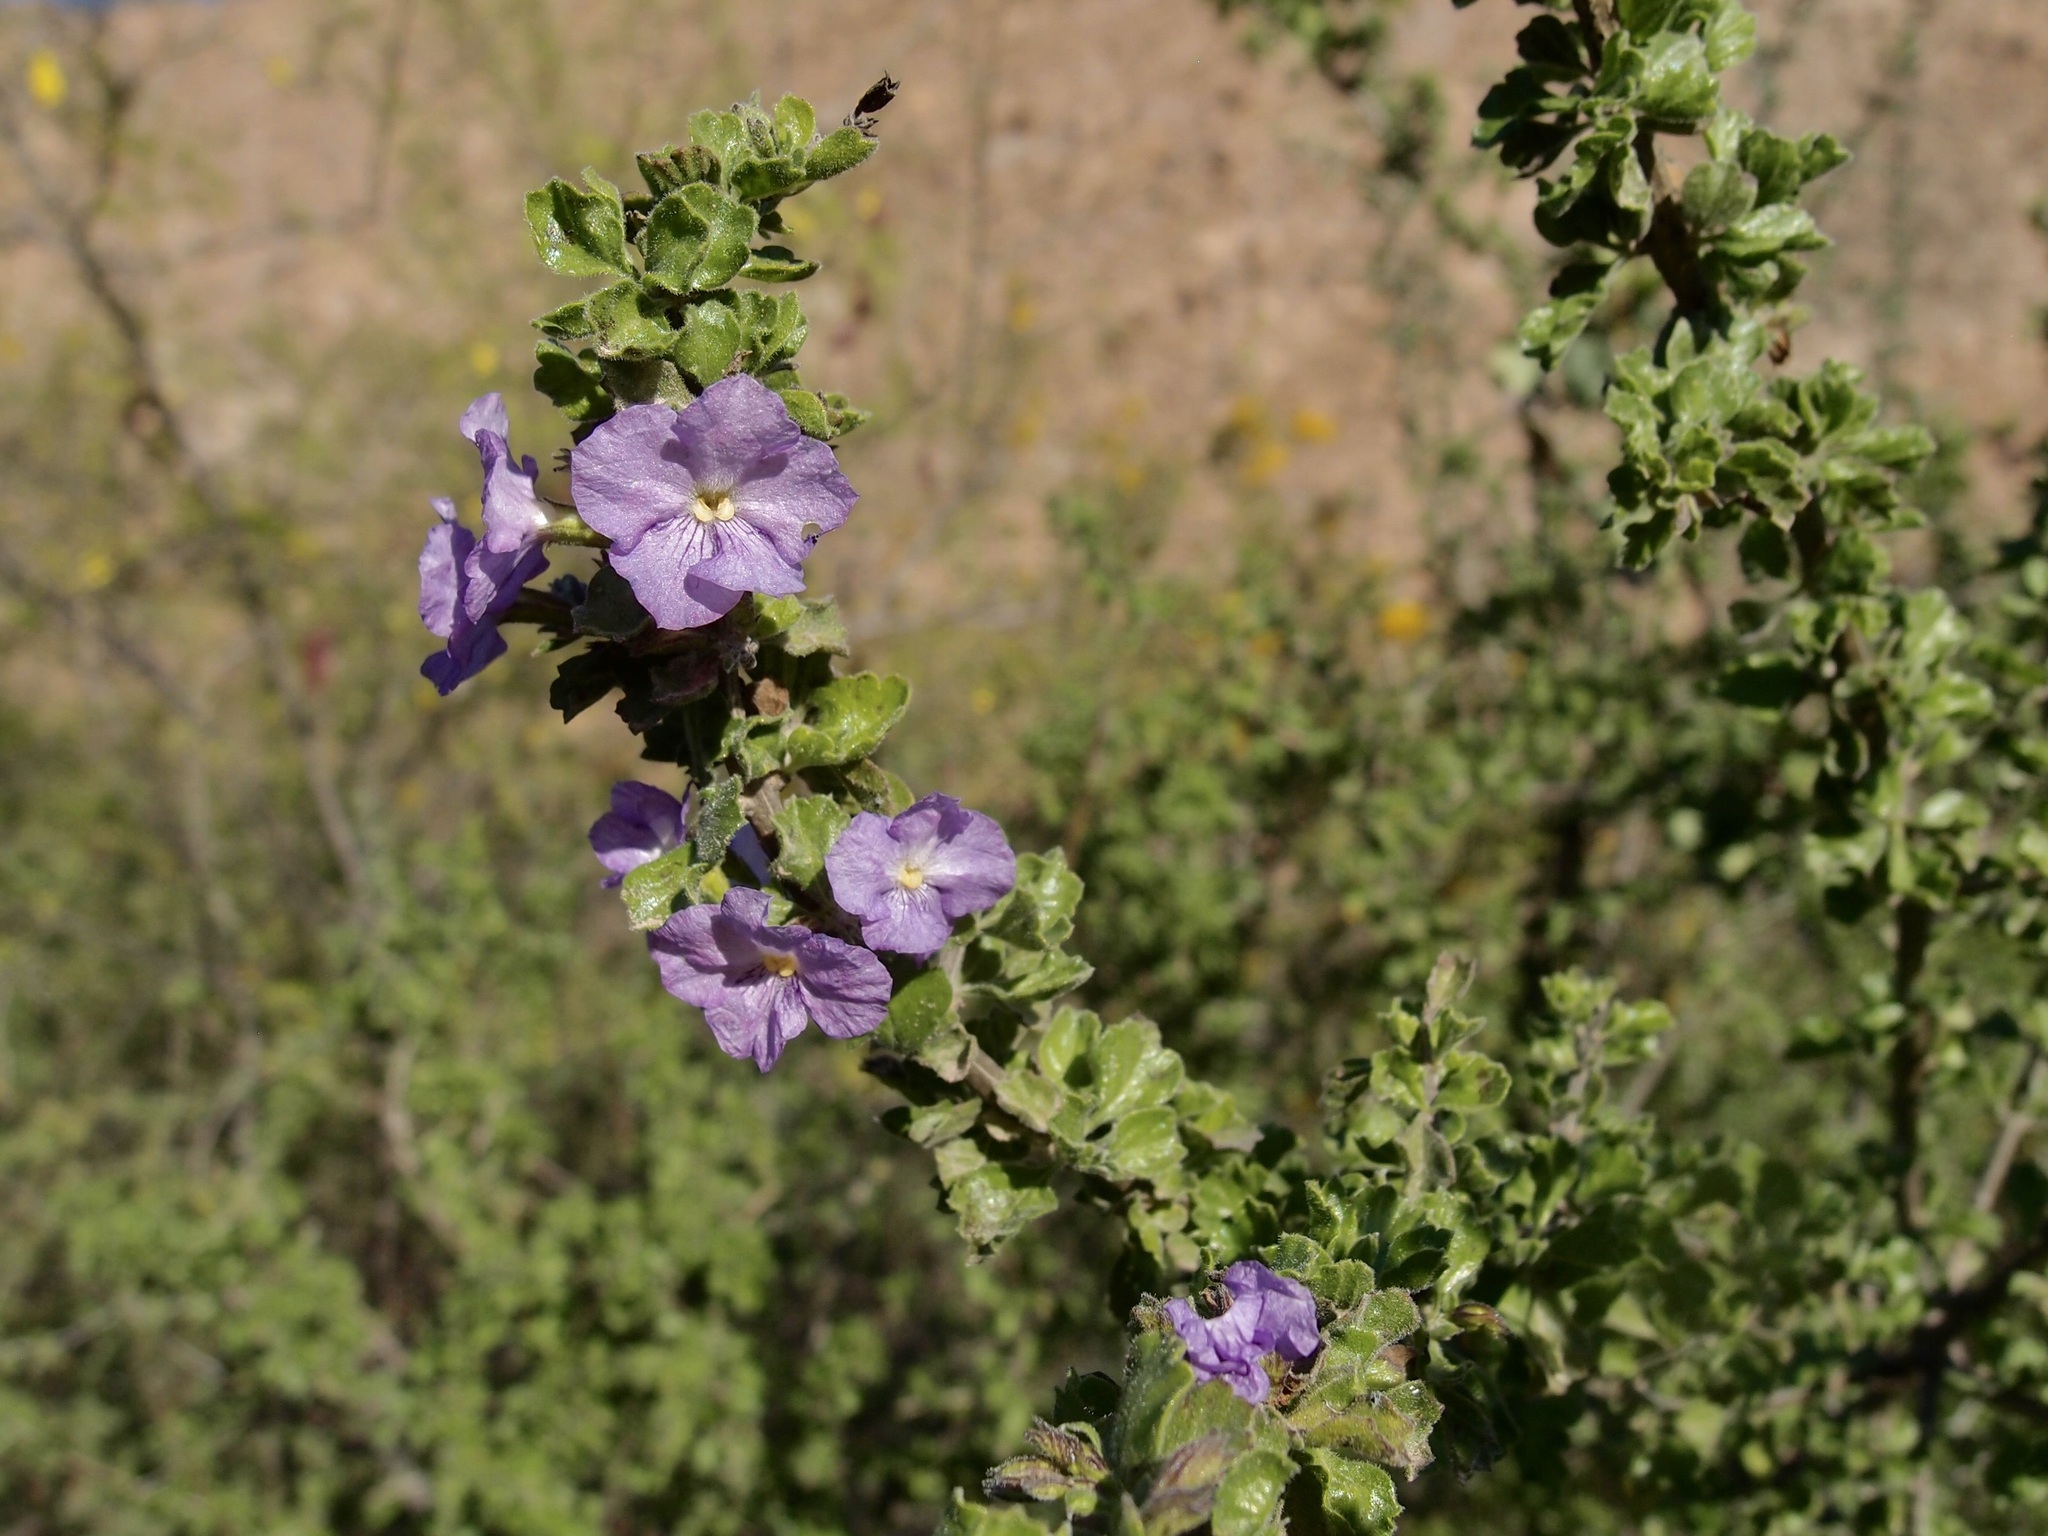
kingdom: Plantae
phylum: Tracheophyta
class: Magnoliopsida
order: Lamiales
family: Verbenaceae
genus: Citharexylum
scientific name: Citharexylum flabellifolium
